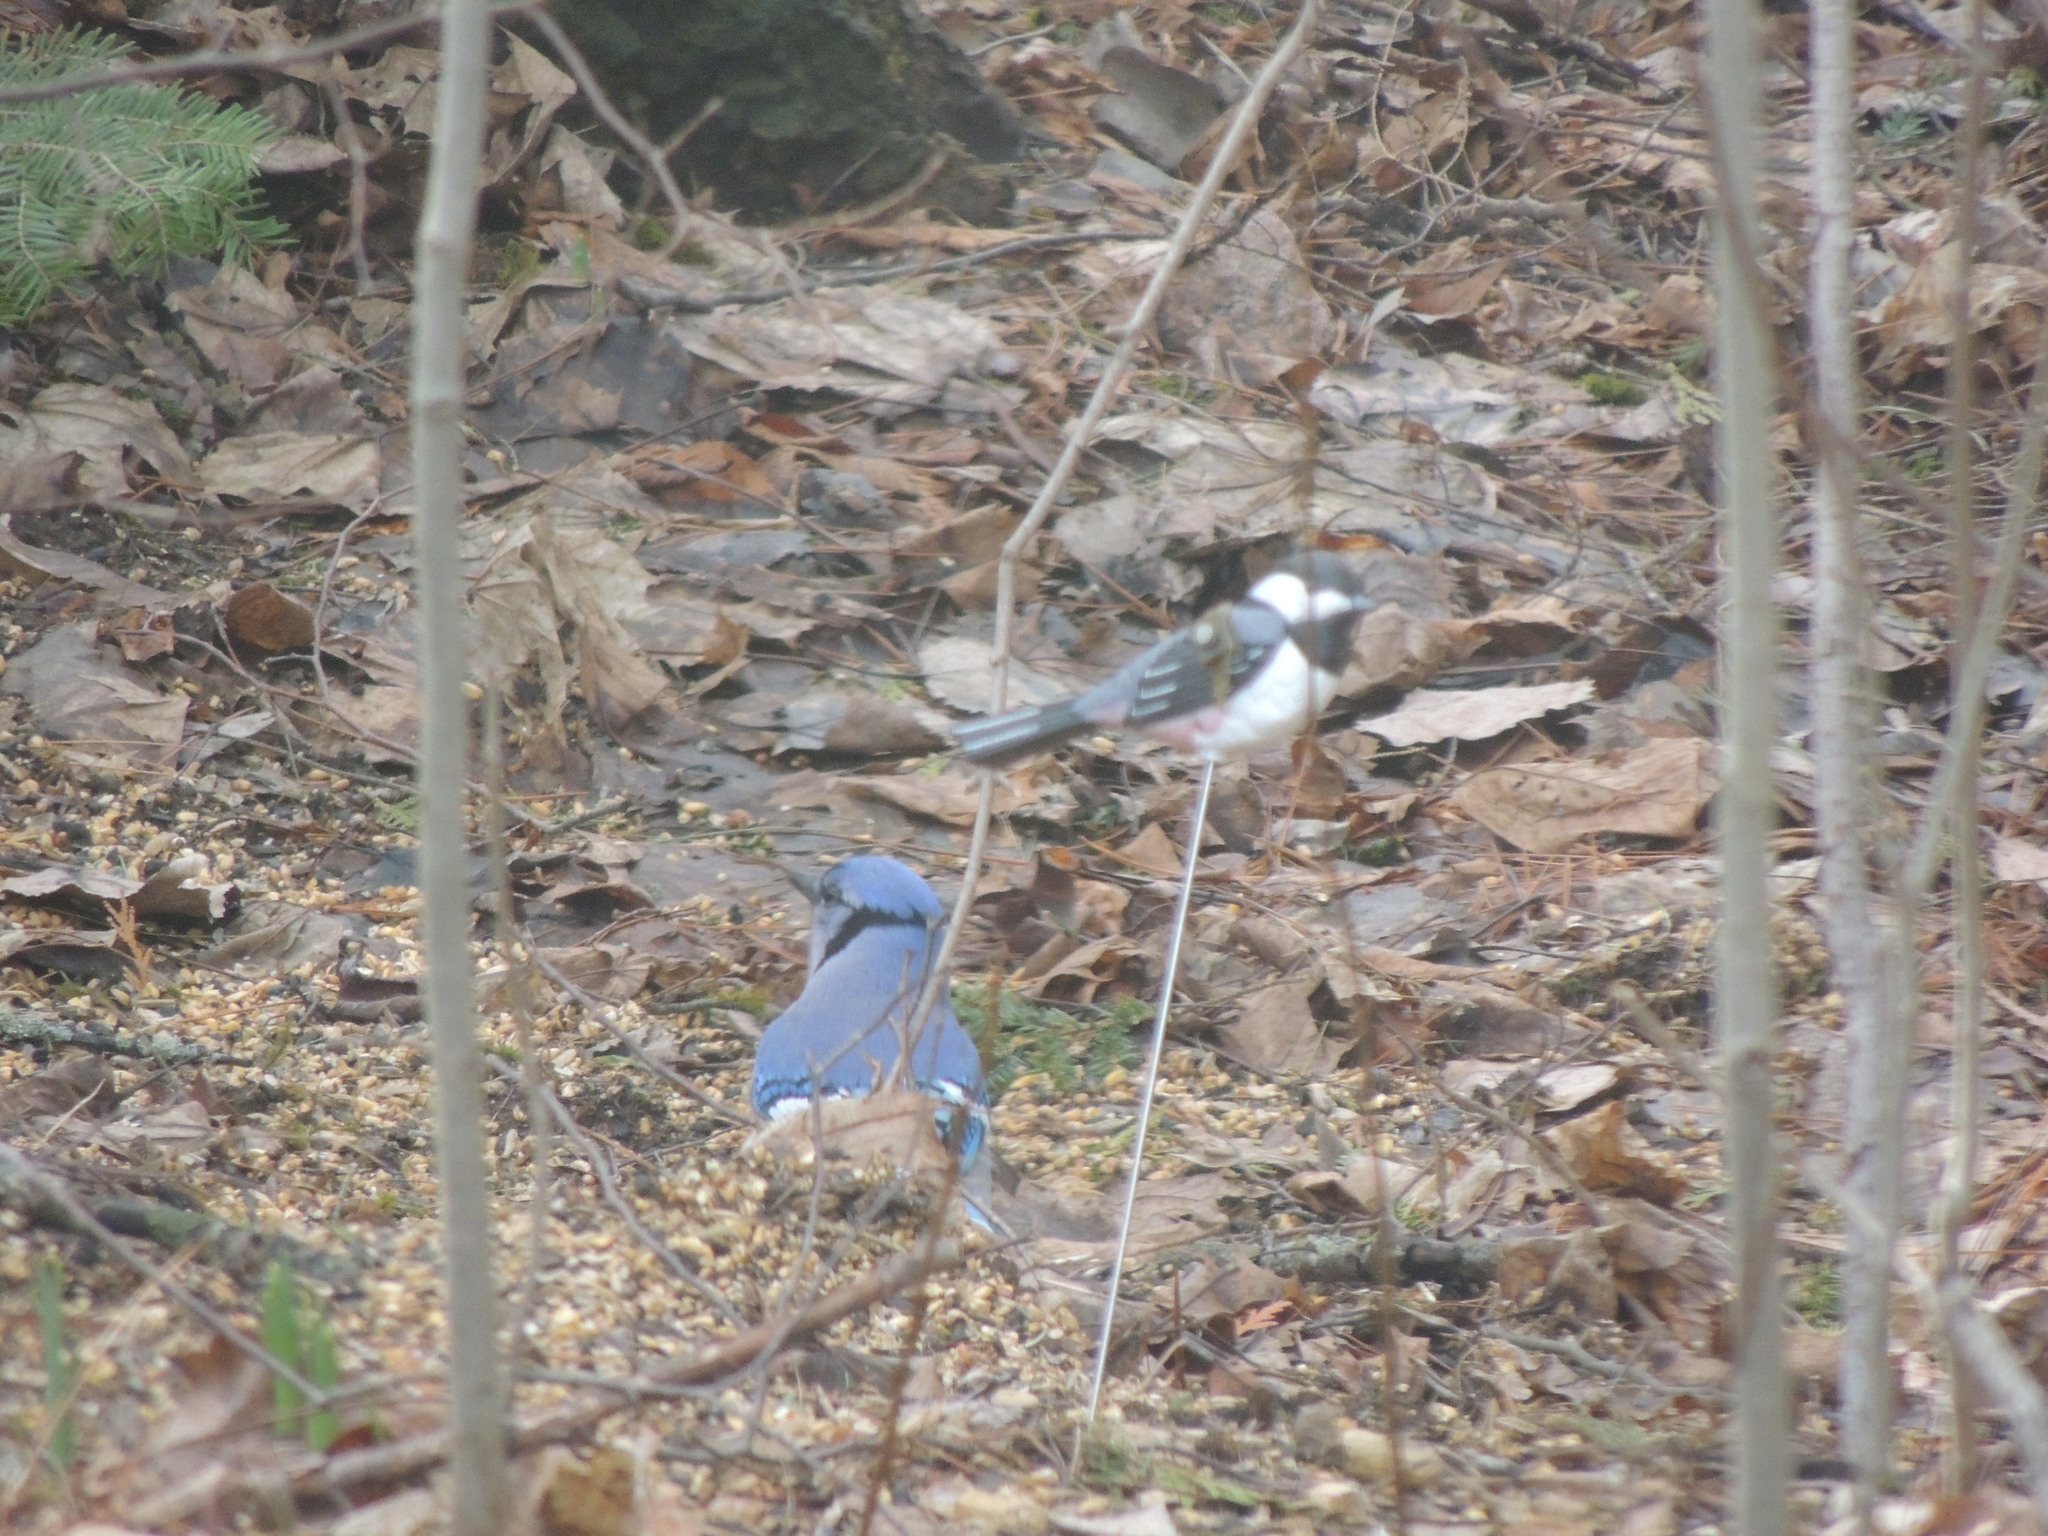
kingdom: Animalia
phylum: Chordata
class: Aves
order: Passeriformes
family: Corvidae
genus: Cyanocitta
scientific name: Cyanocitta cristata
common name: Blue jay
